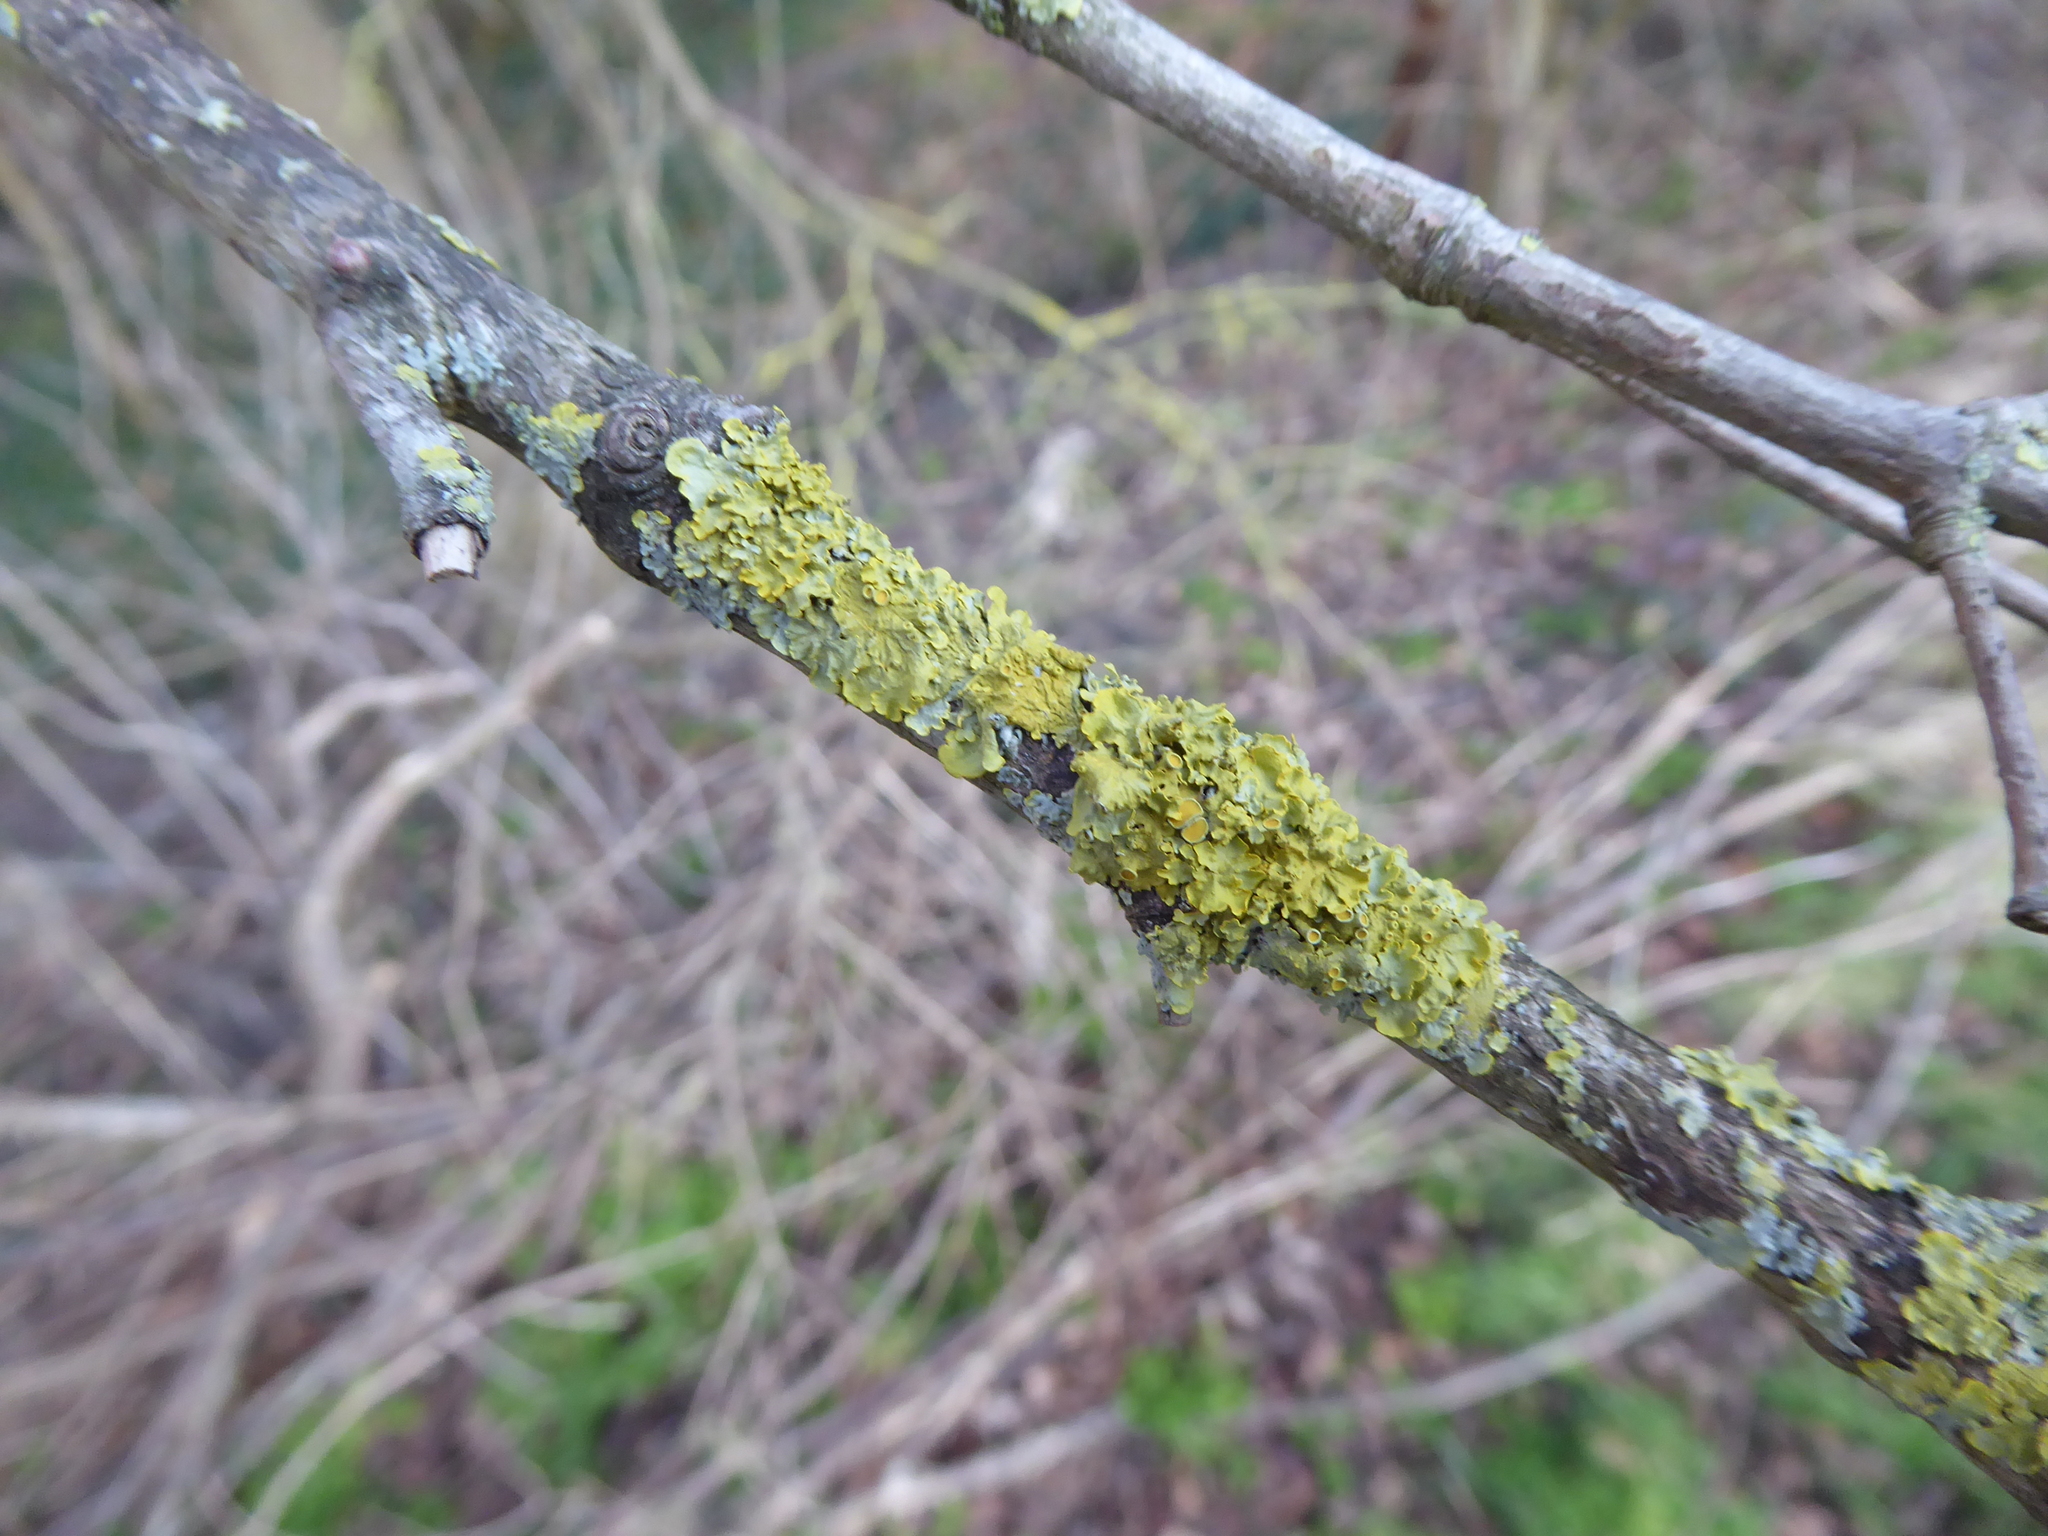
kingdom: Fungi
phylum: Ascomycota
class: Lecanoromycetes
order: Teloschistales
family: Teloschistaceae
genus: Xanthoria
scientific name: Xanthoria parietina
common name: Common orange lichen
